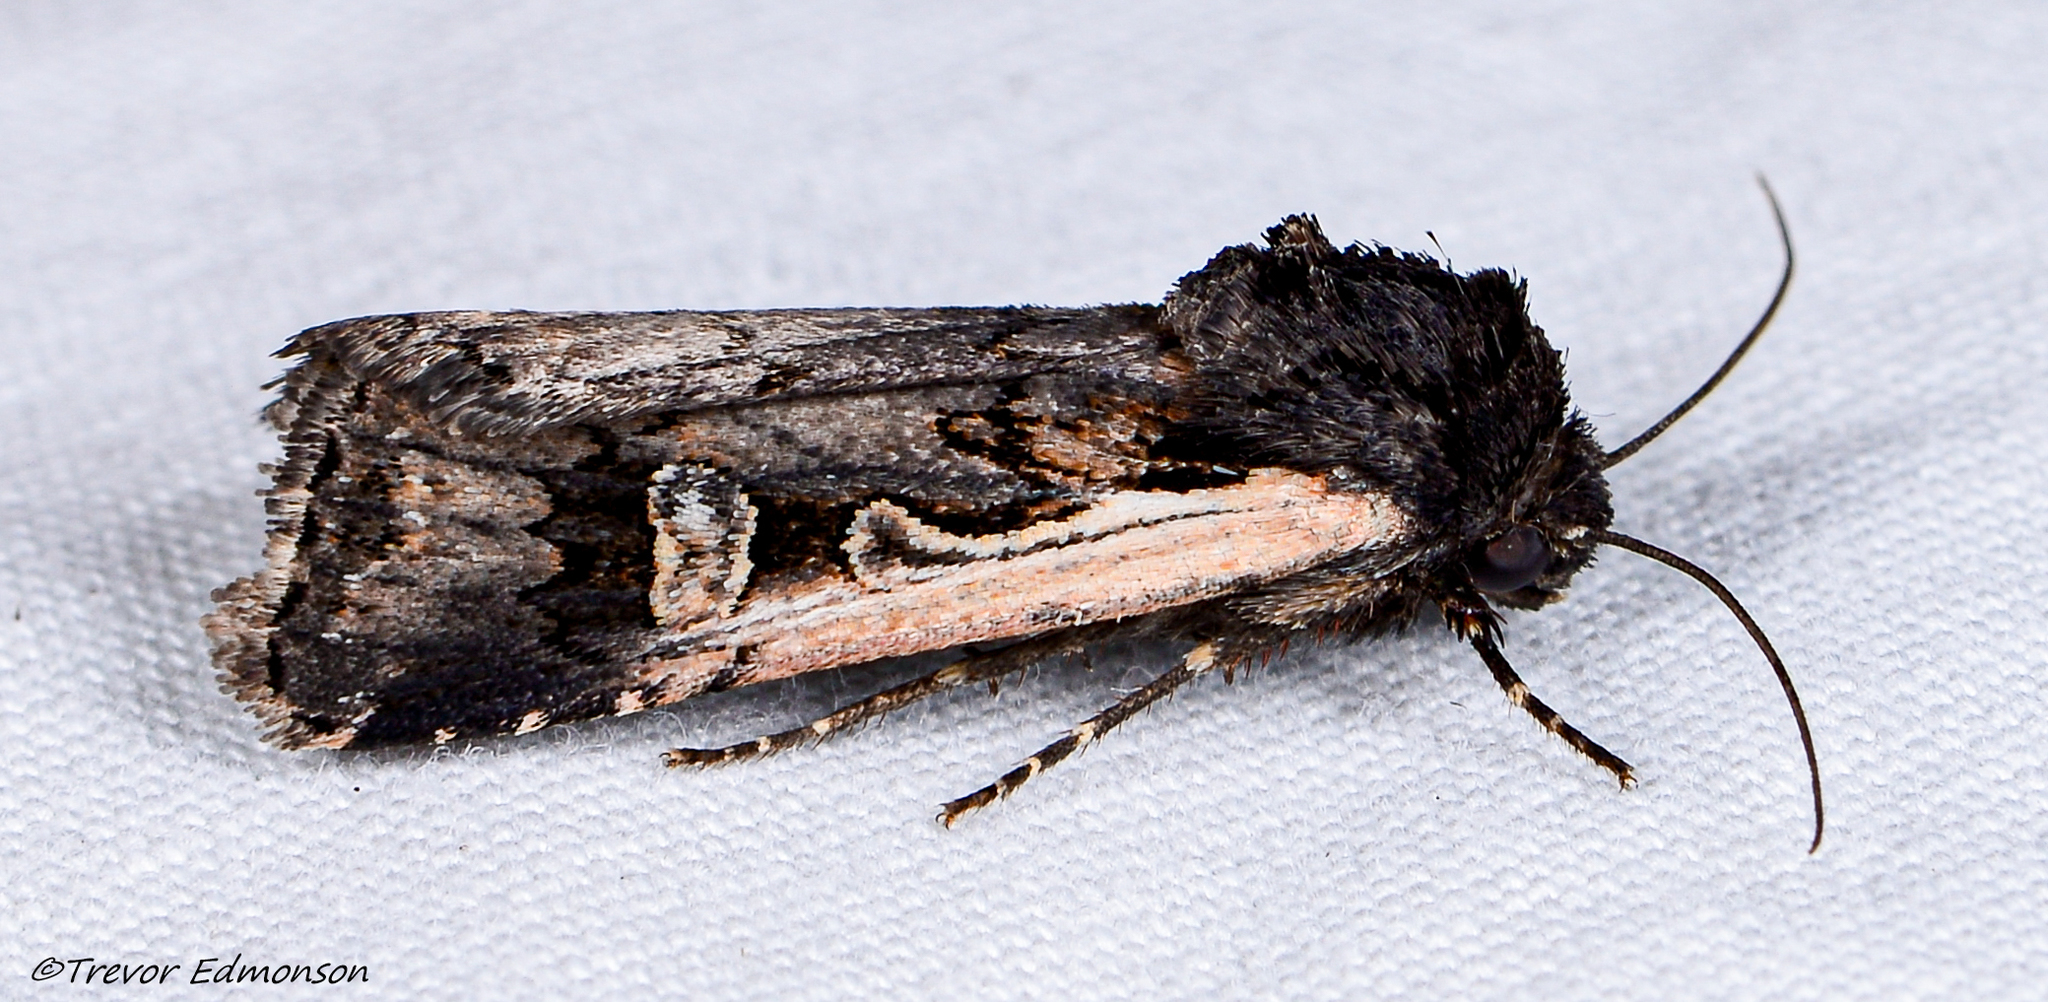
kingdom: Animalia
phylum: Arthropoda
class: Insecta
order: Lepidoptera
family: Noctuidae
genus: Dichagyris
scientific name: Dichagyris reliqua
